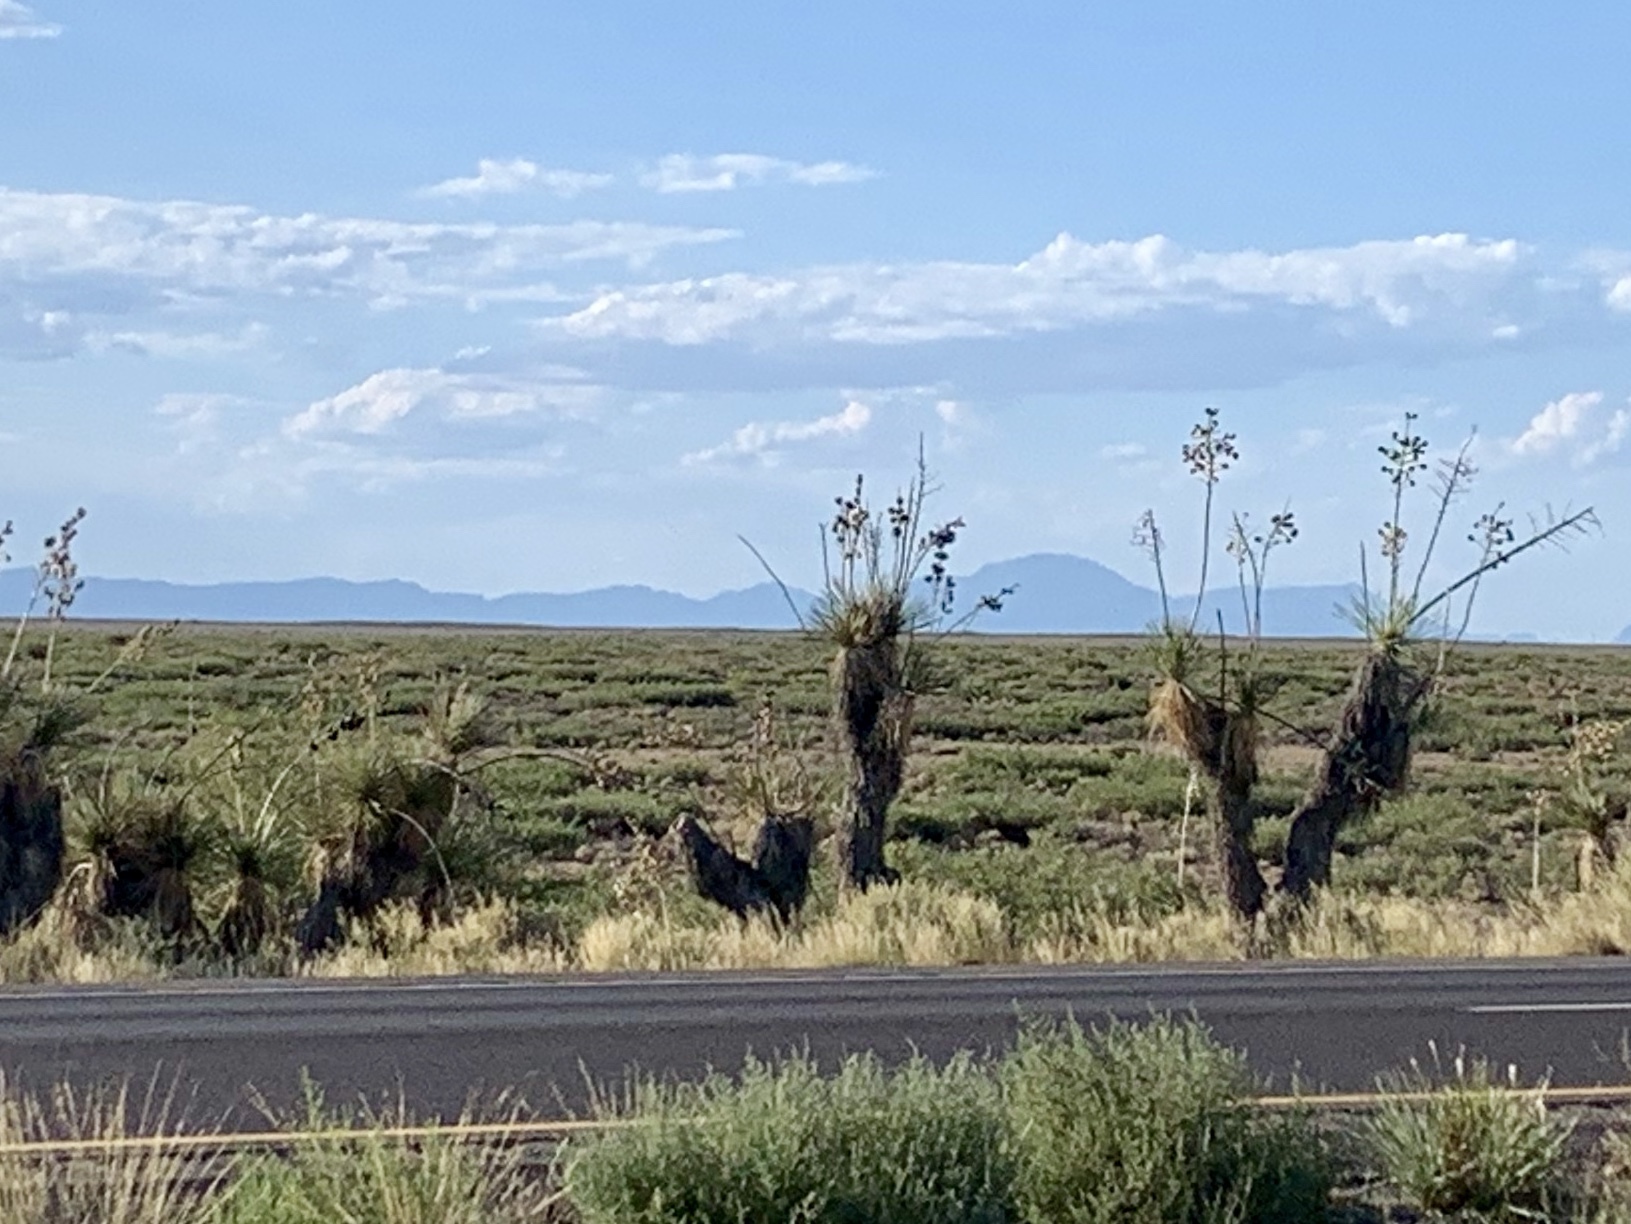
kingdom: Plantae
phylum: Tracheophyta
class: Liliopsida
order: Asparagales
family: Asparagaceae
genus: Yucca
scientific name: Yucca elata
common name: Palmella
